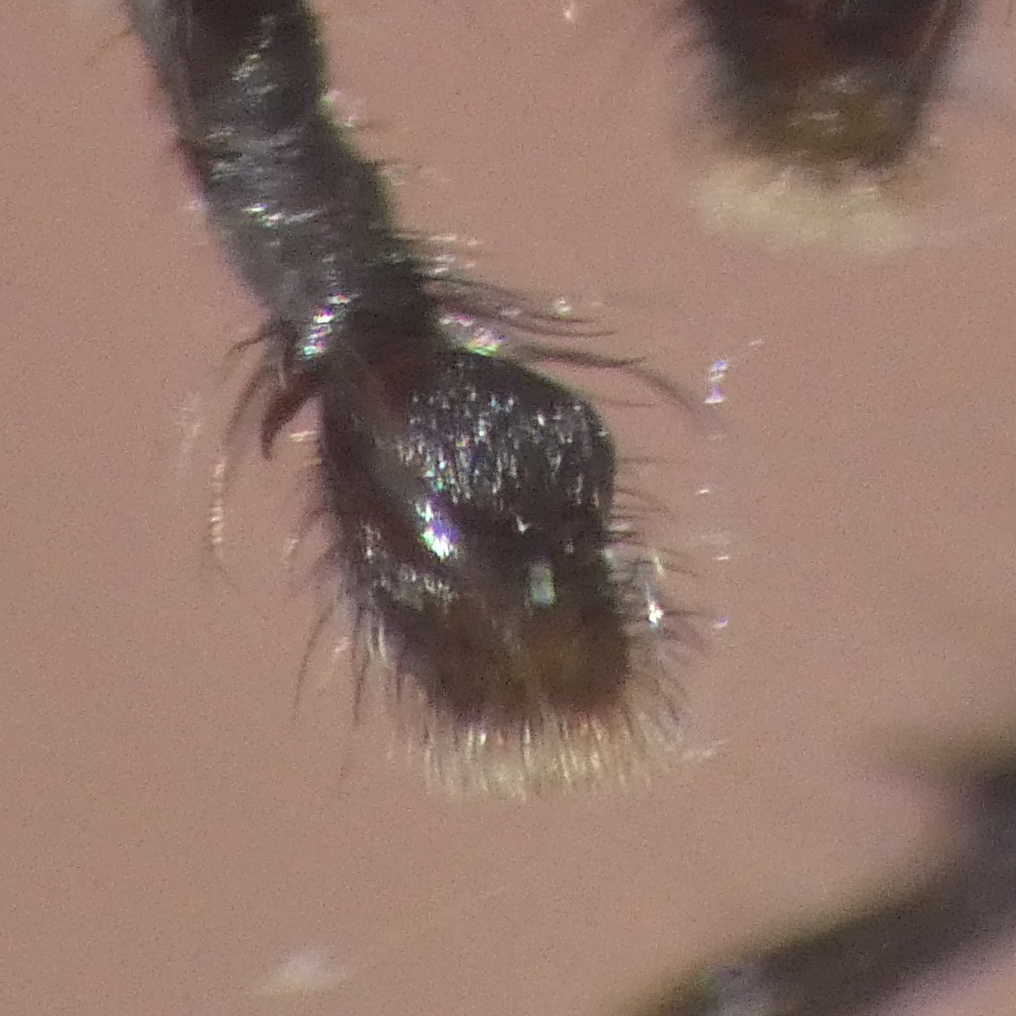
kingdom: Animalia
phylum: Arthropoda
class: Arachnida
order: Araneae
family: Salticidae
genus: Thyene
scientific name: Thyene inflata
